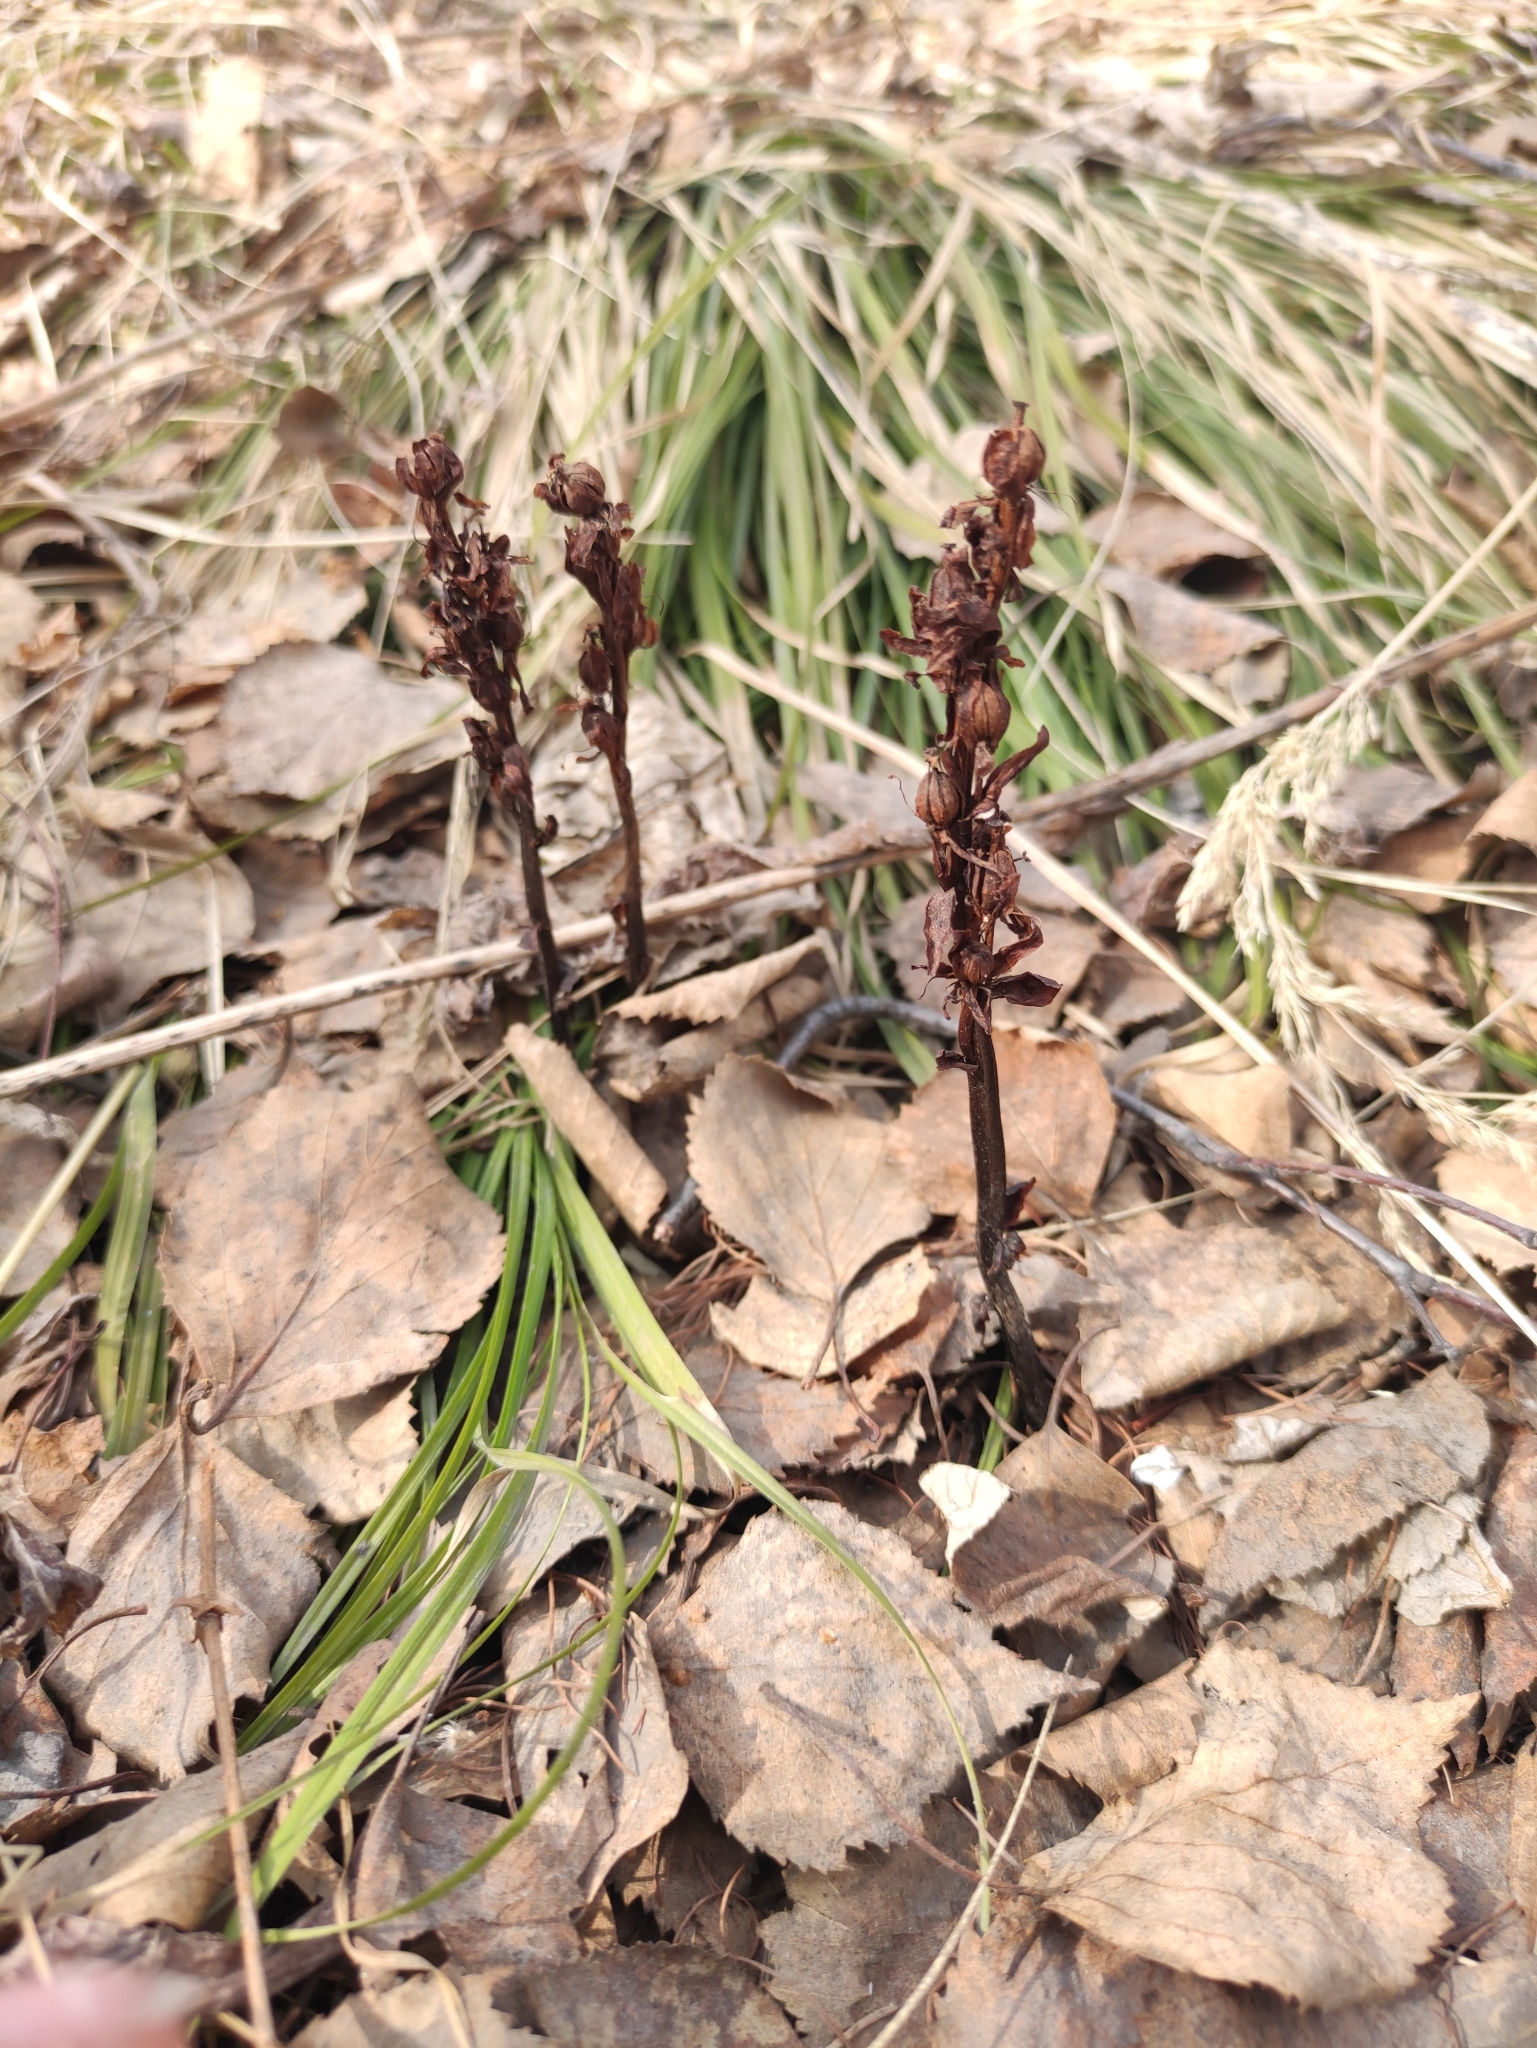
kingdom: Plantae
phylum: Tracheophyta
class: Magnoliopsida
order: Ericales
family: Ericaceae
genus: Hypopitys
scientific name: Hypopitys monotropa
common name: Yellow bird's-nest
